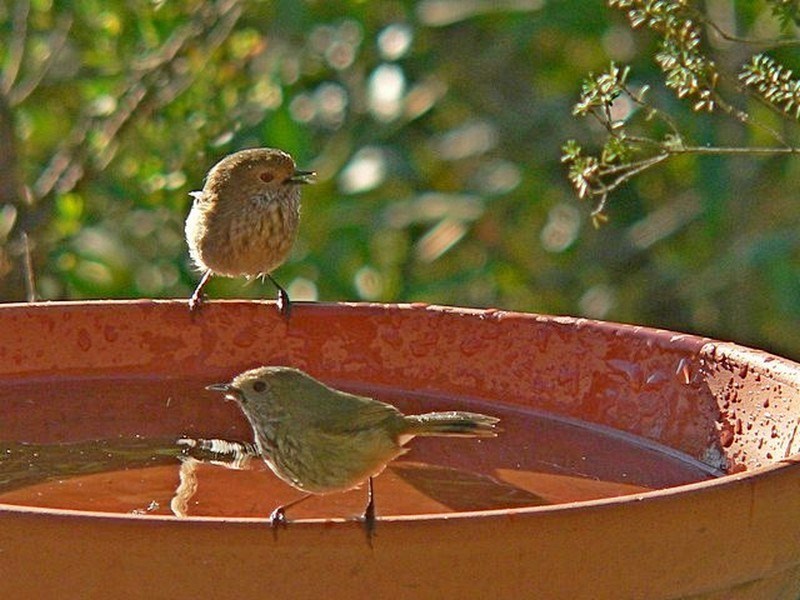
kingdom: Animalia
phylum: Chordata
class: Aves
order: Passeriformes
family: Acanthizidae
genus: Acanthiza
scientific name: Acanthiza pusilla
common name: Brown thornbill
